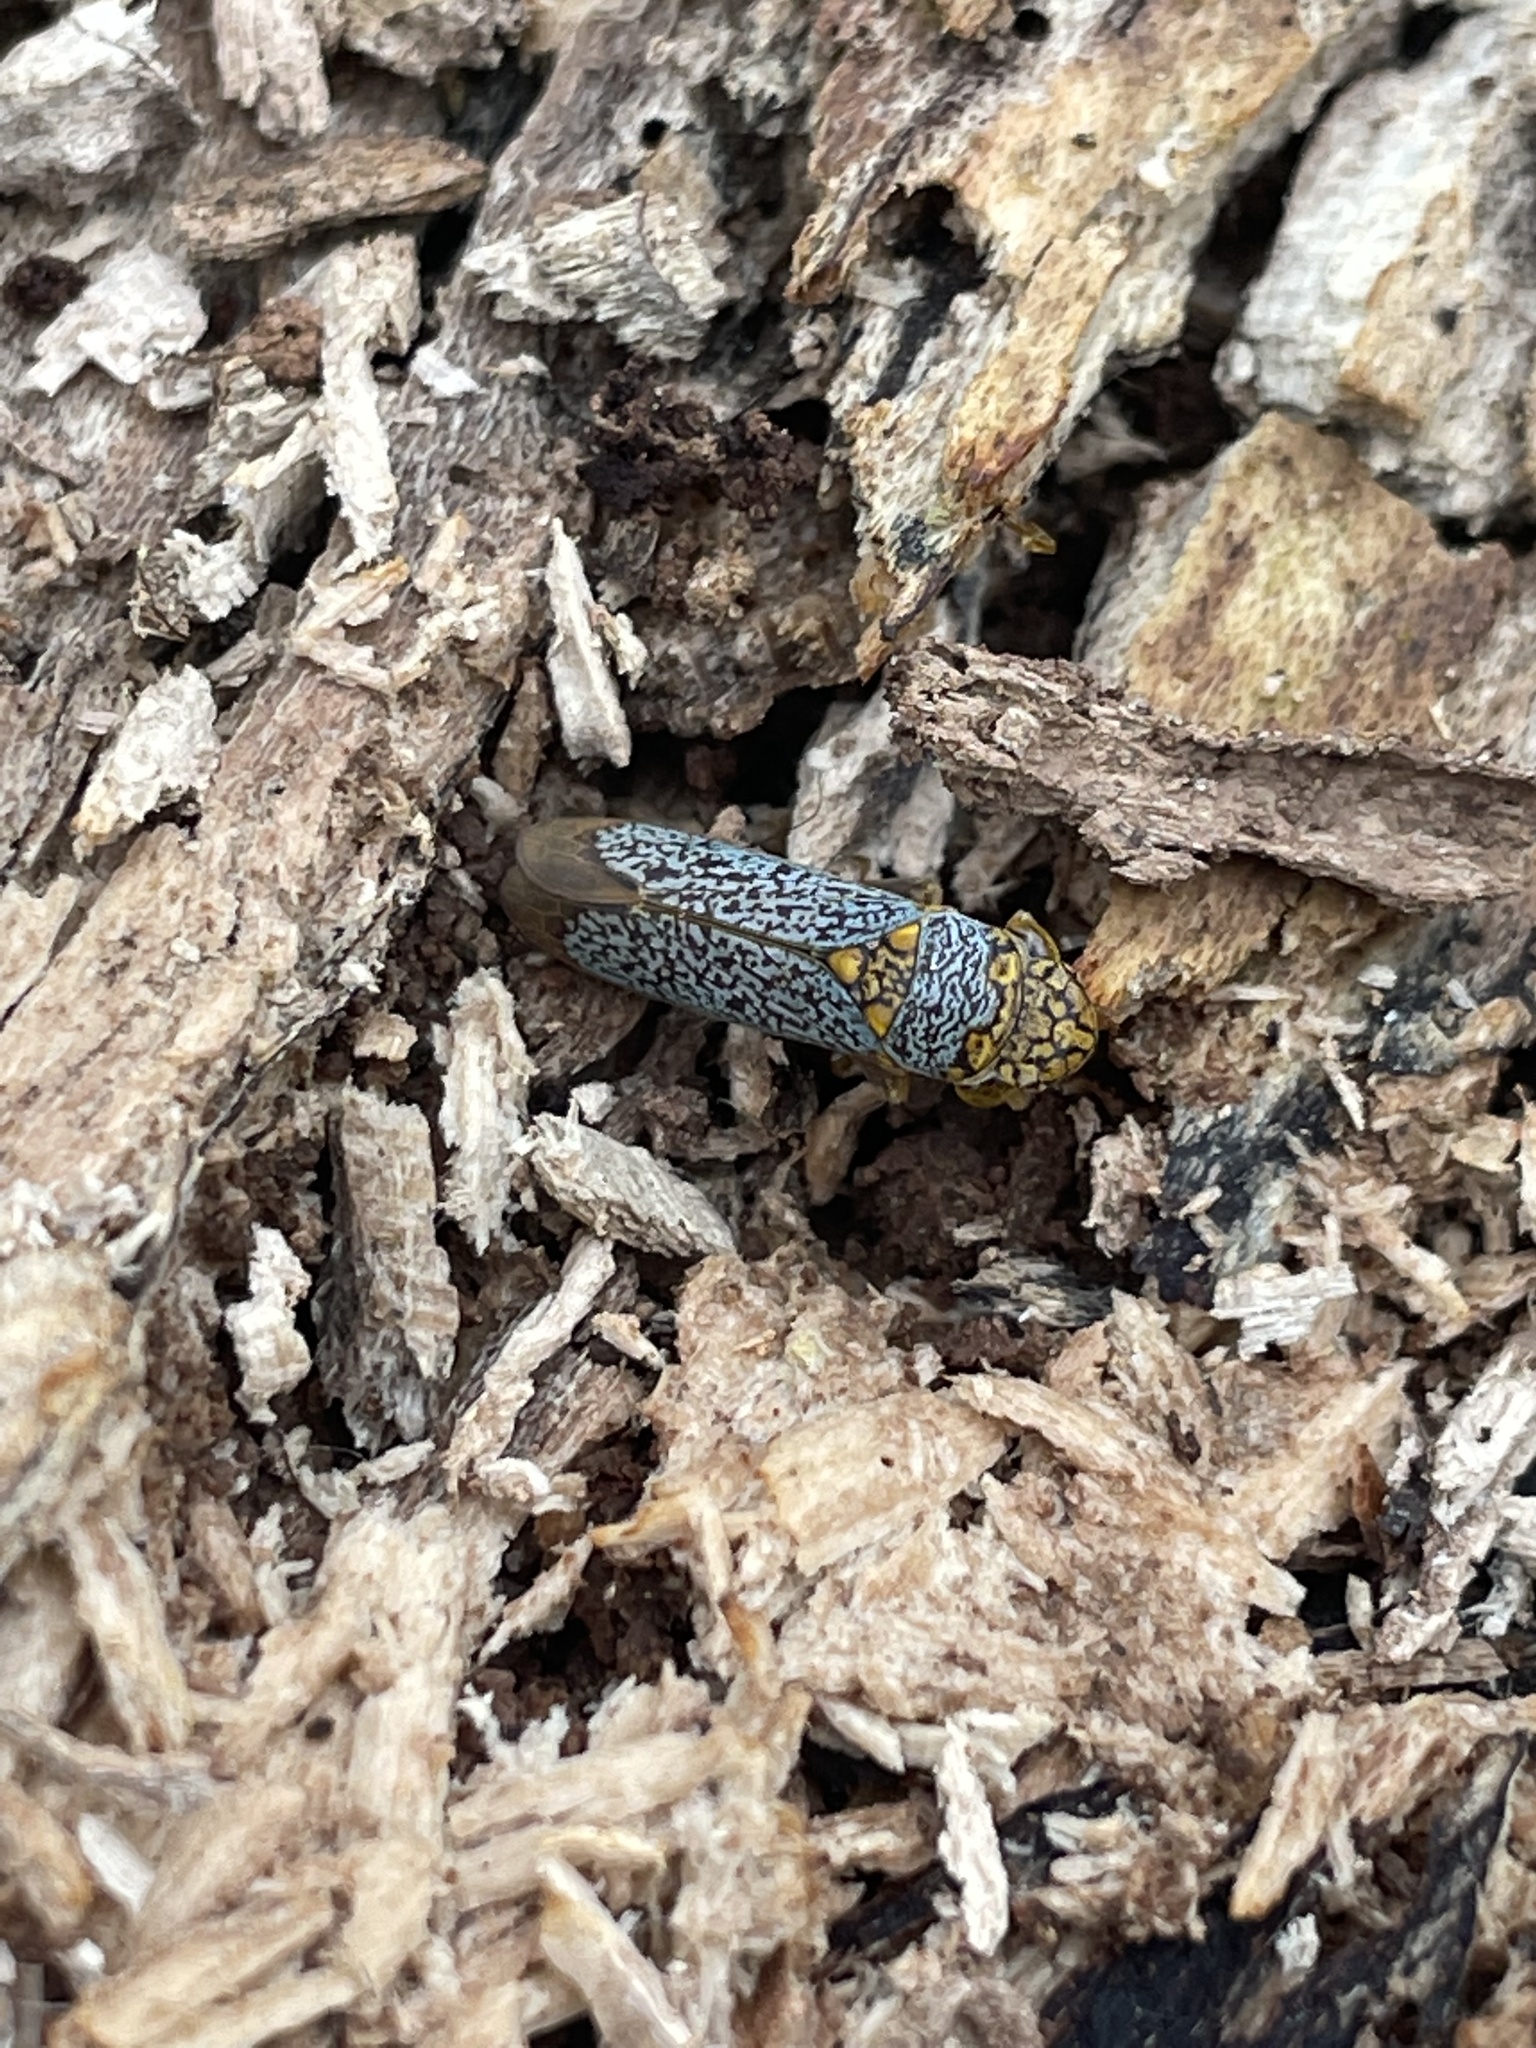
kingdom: Animalia
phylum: Arthropoda
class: Insecta
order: Hemiptera
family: Cicadellidae
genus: Oncometopia
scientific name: Oncometopia orbona
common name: Broad-headed sharpshooter
